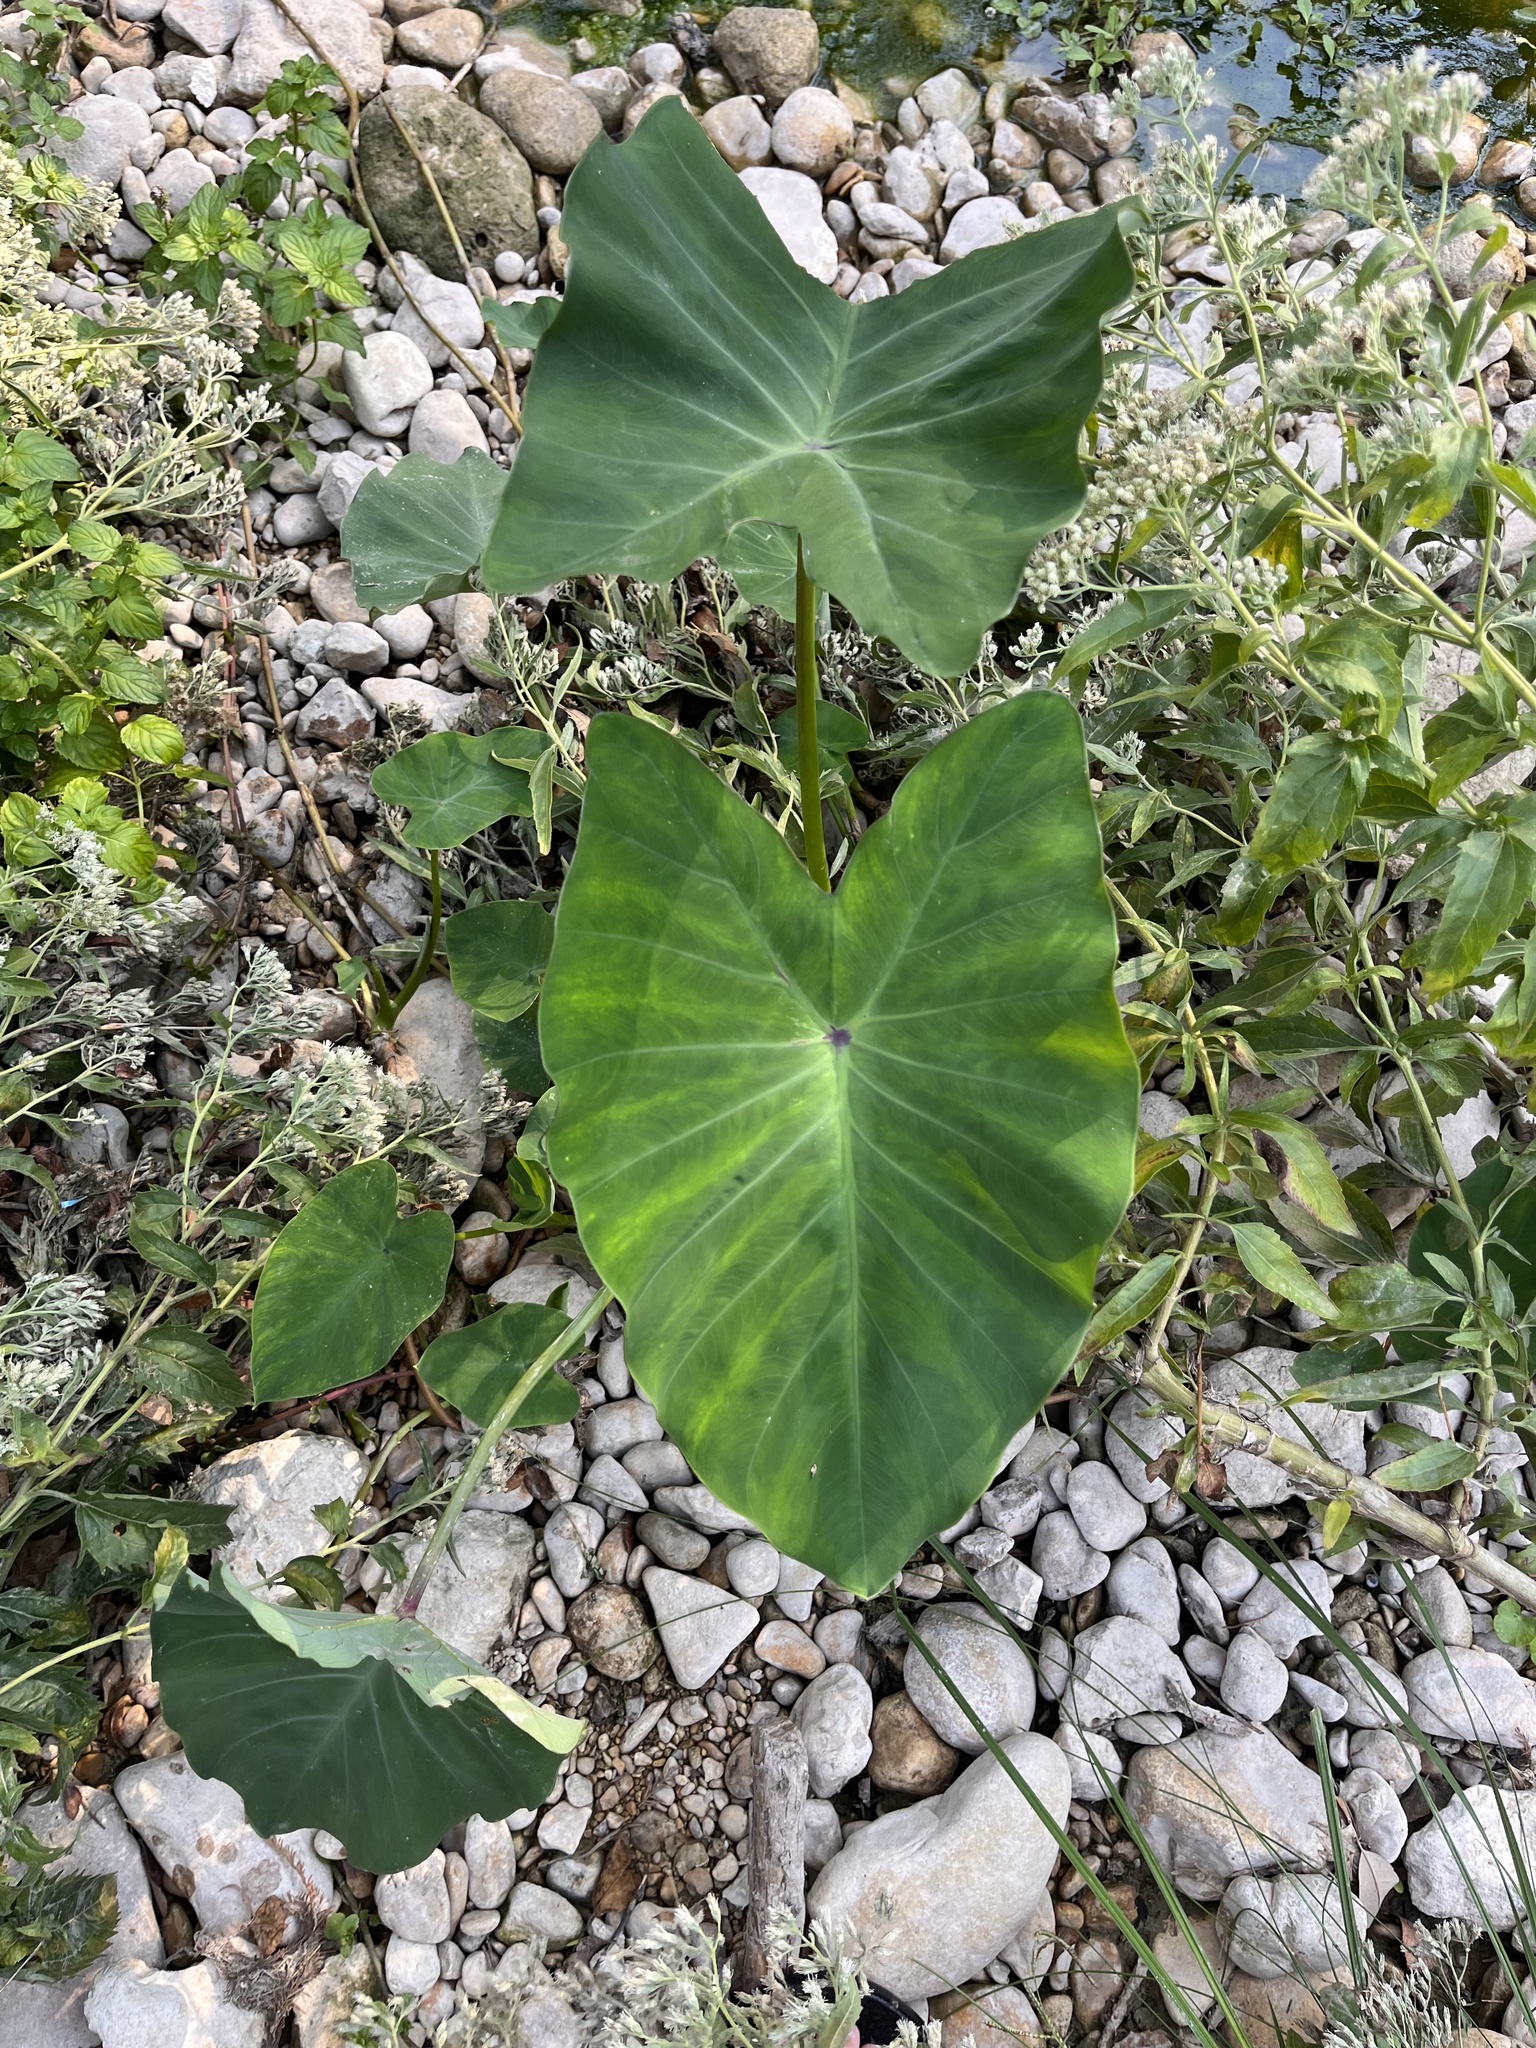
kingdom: Plantae
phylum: Tracheophyta
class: Liliopsida
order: Alismatales
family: Araceae
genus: Colocasia
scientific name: Colocasia esculenta
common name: Taro
